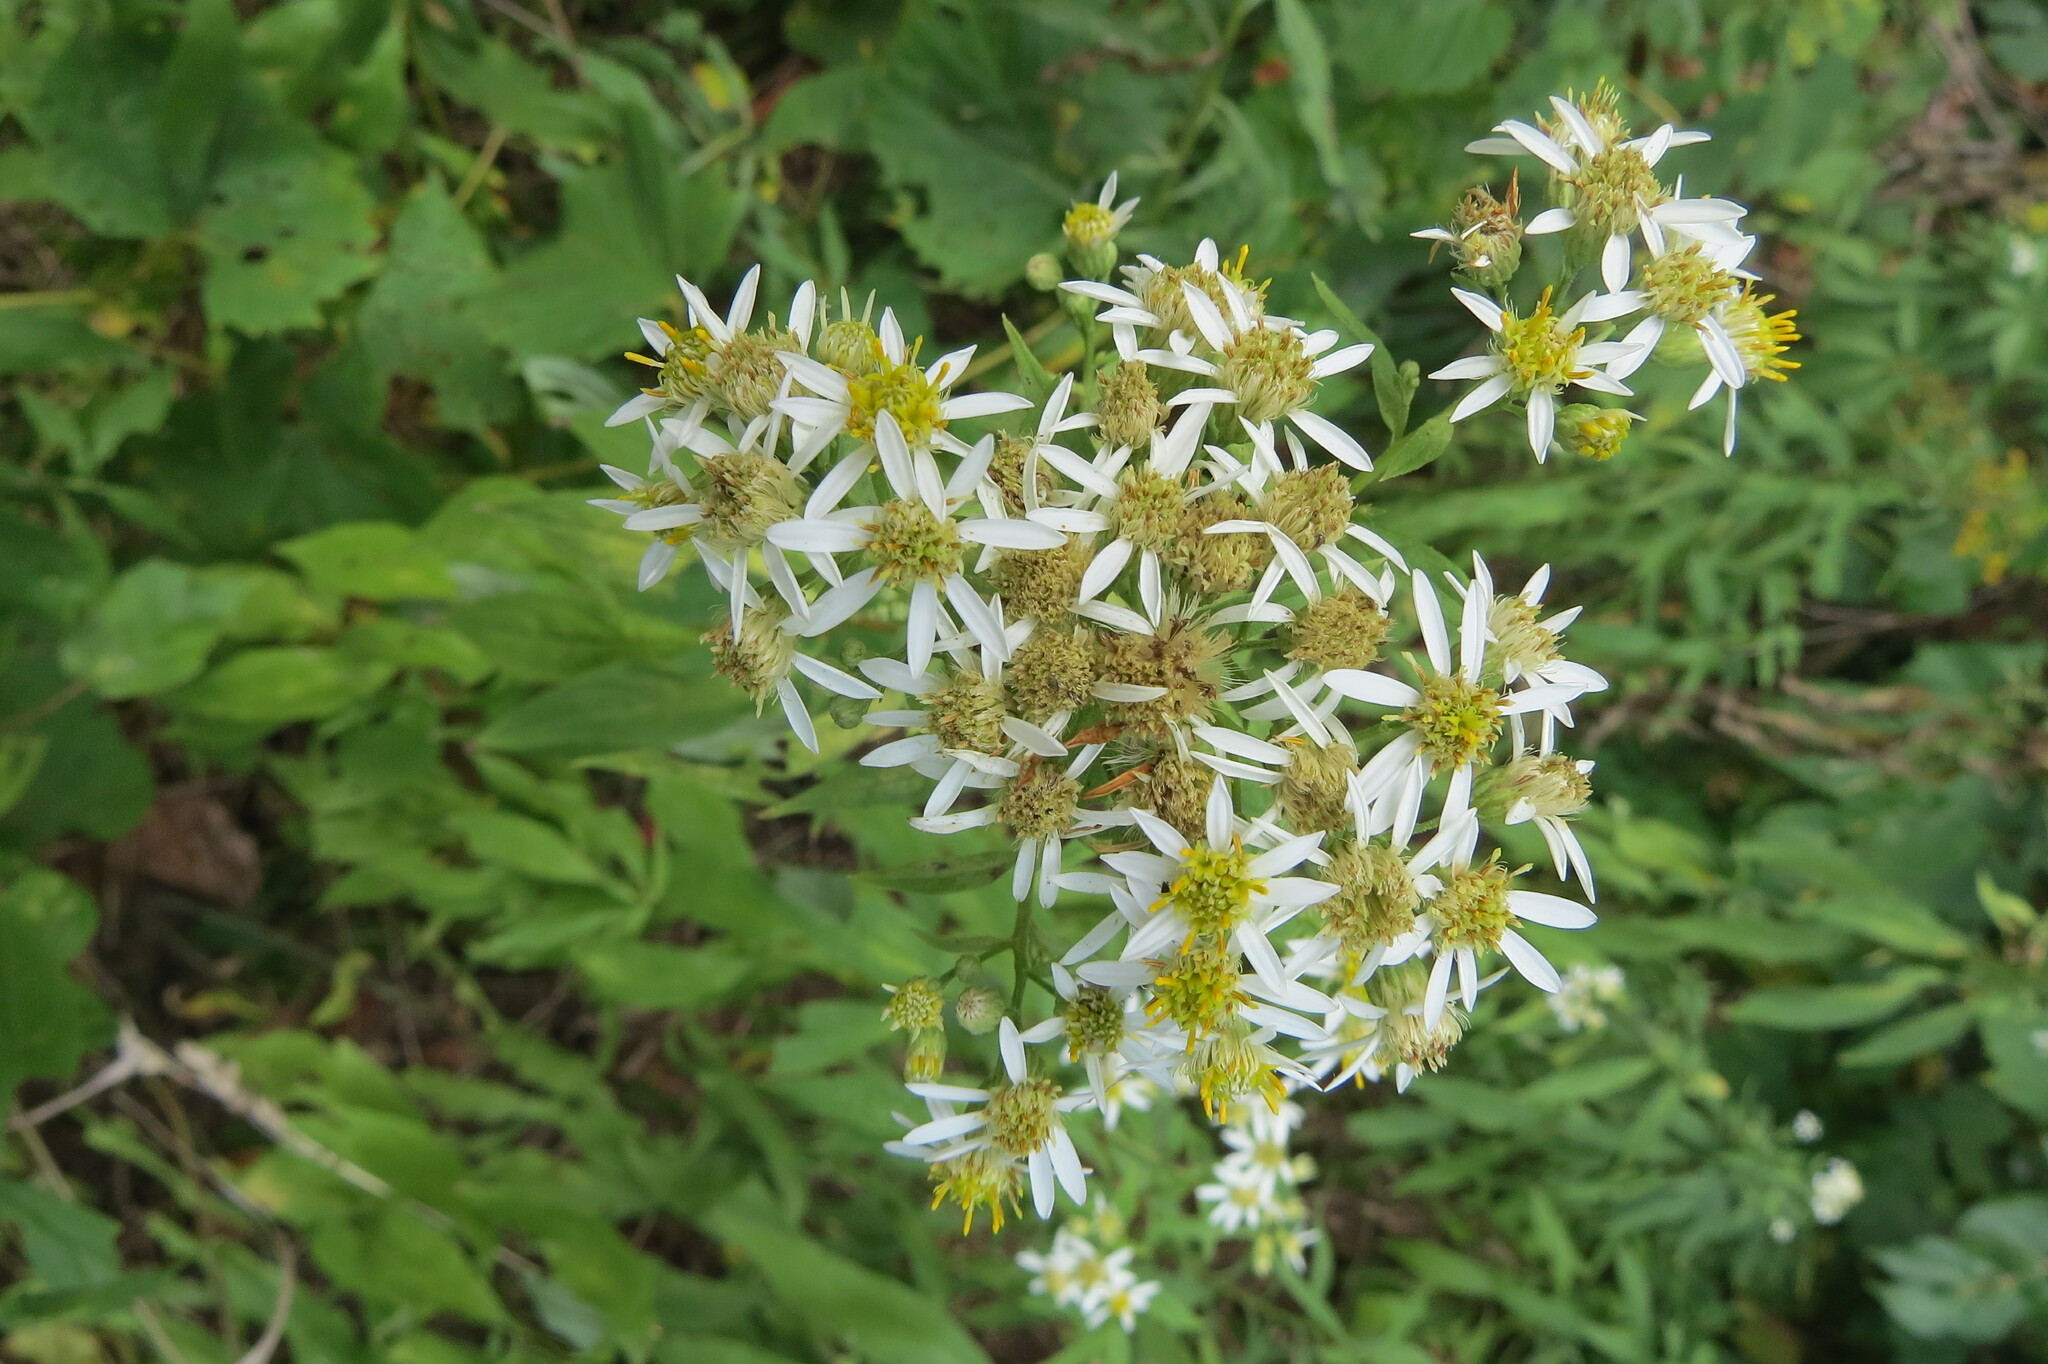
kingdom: Plantae
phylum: Tracheophyta
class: Magnoliopsida
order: Asterales
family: Asteraceae
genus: Doellingeria
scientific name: Doellingeria umbellata
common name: Flat-top white aster
